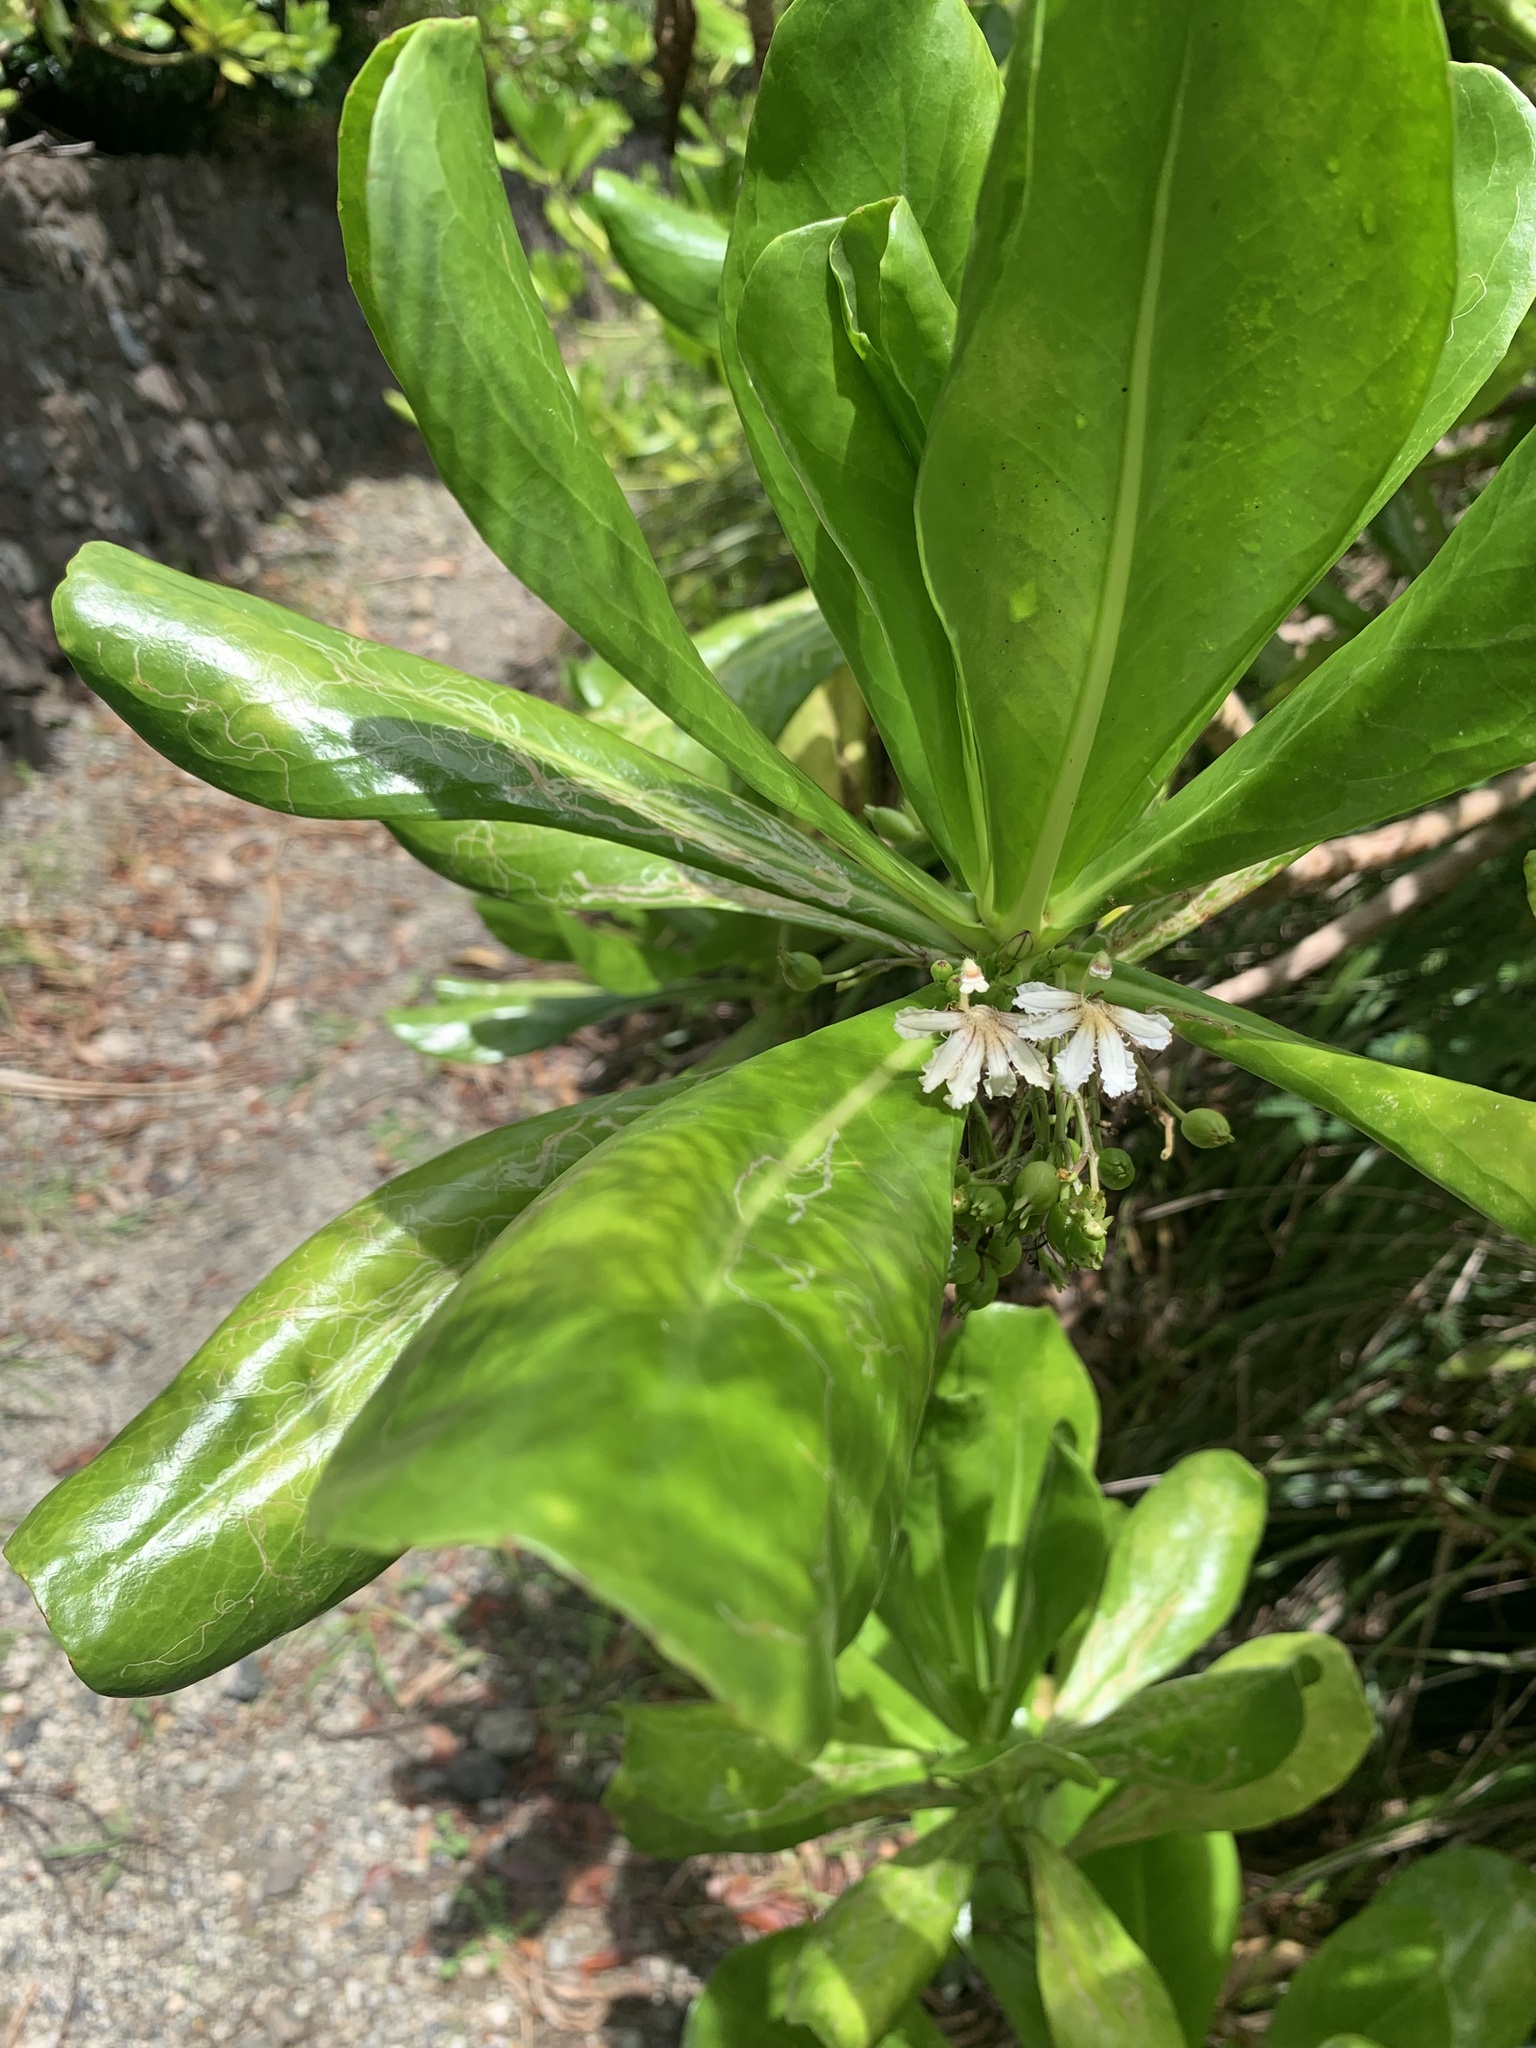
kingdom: Plantae
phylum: Tracheophyta
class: Magnoliopsida
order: Asterales
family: Goodeniaceae
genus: Scaevola
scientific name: Scaevola taccada
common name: Sea lettucetree
